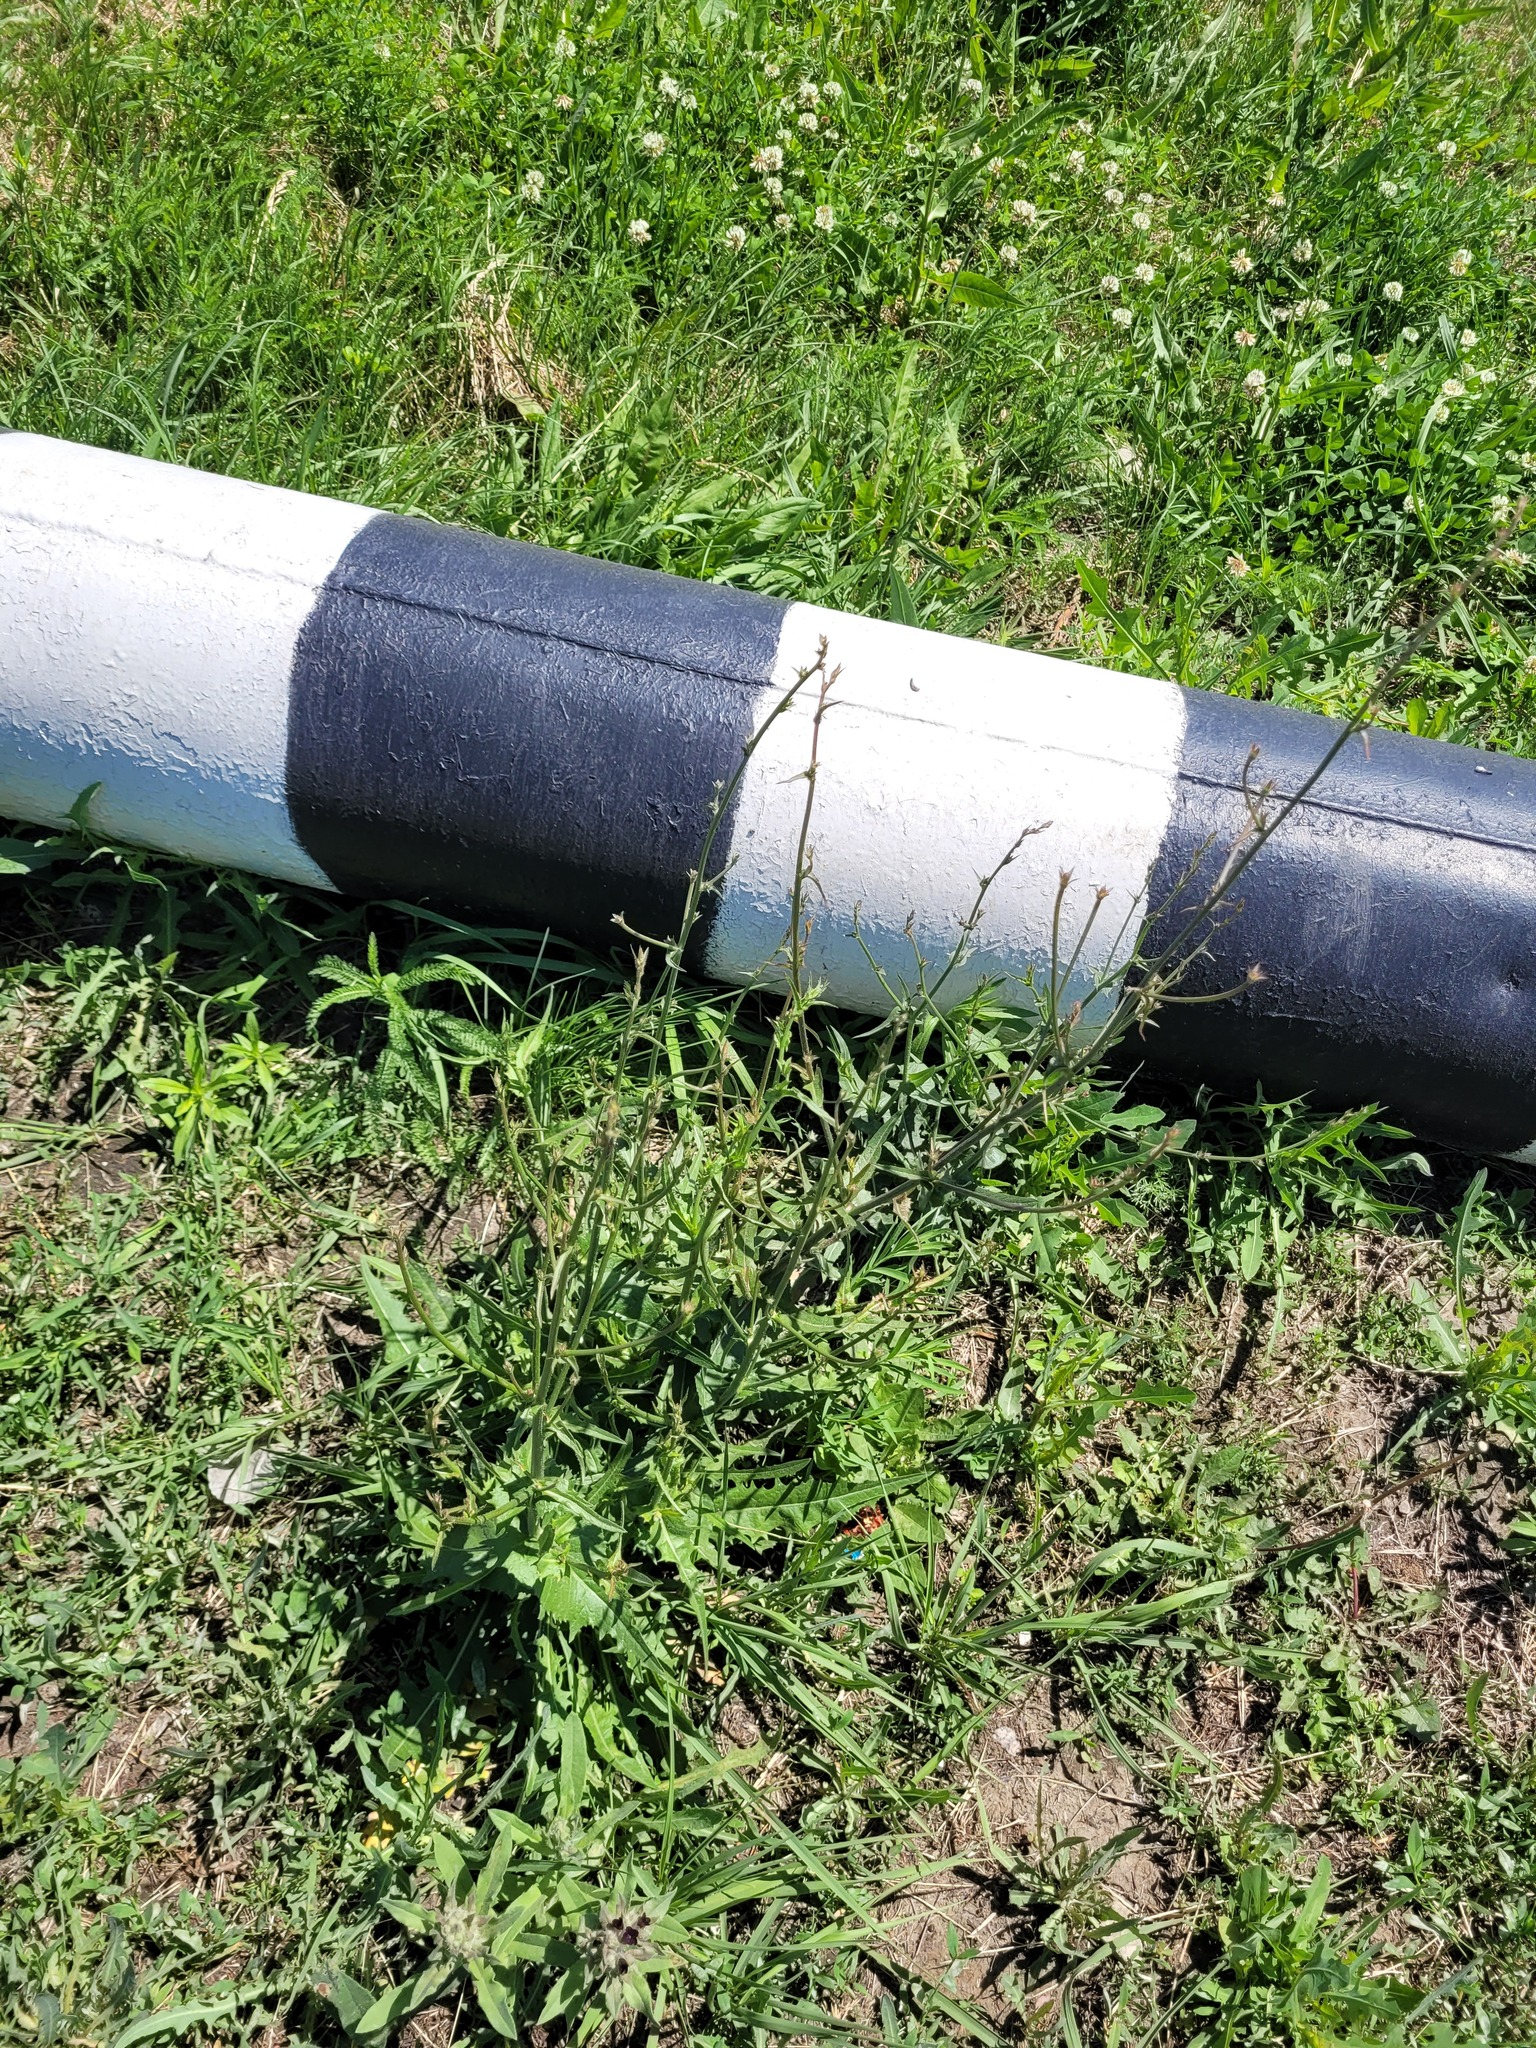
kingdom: Plantae
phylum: Tracheophyta
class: Magnoliopsida
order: Asterales
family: Asteraceae
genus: Cichorium
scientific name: Cichorium intybus
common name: Chicory
